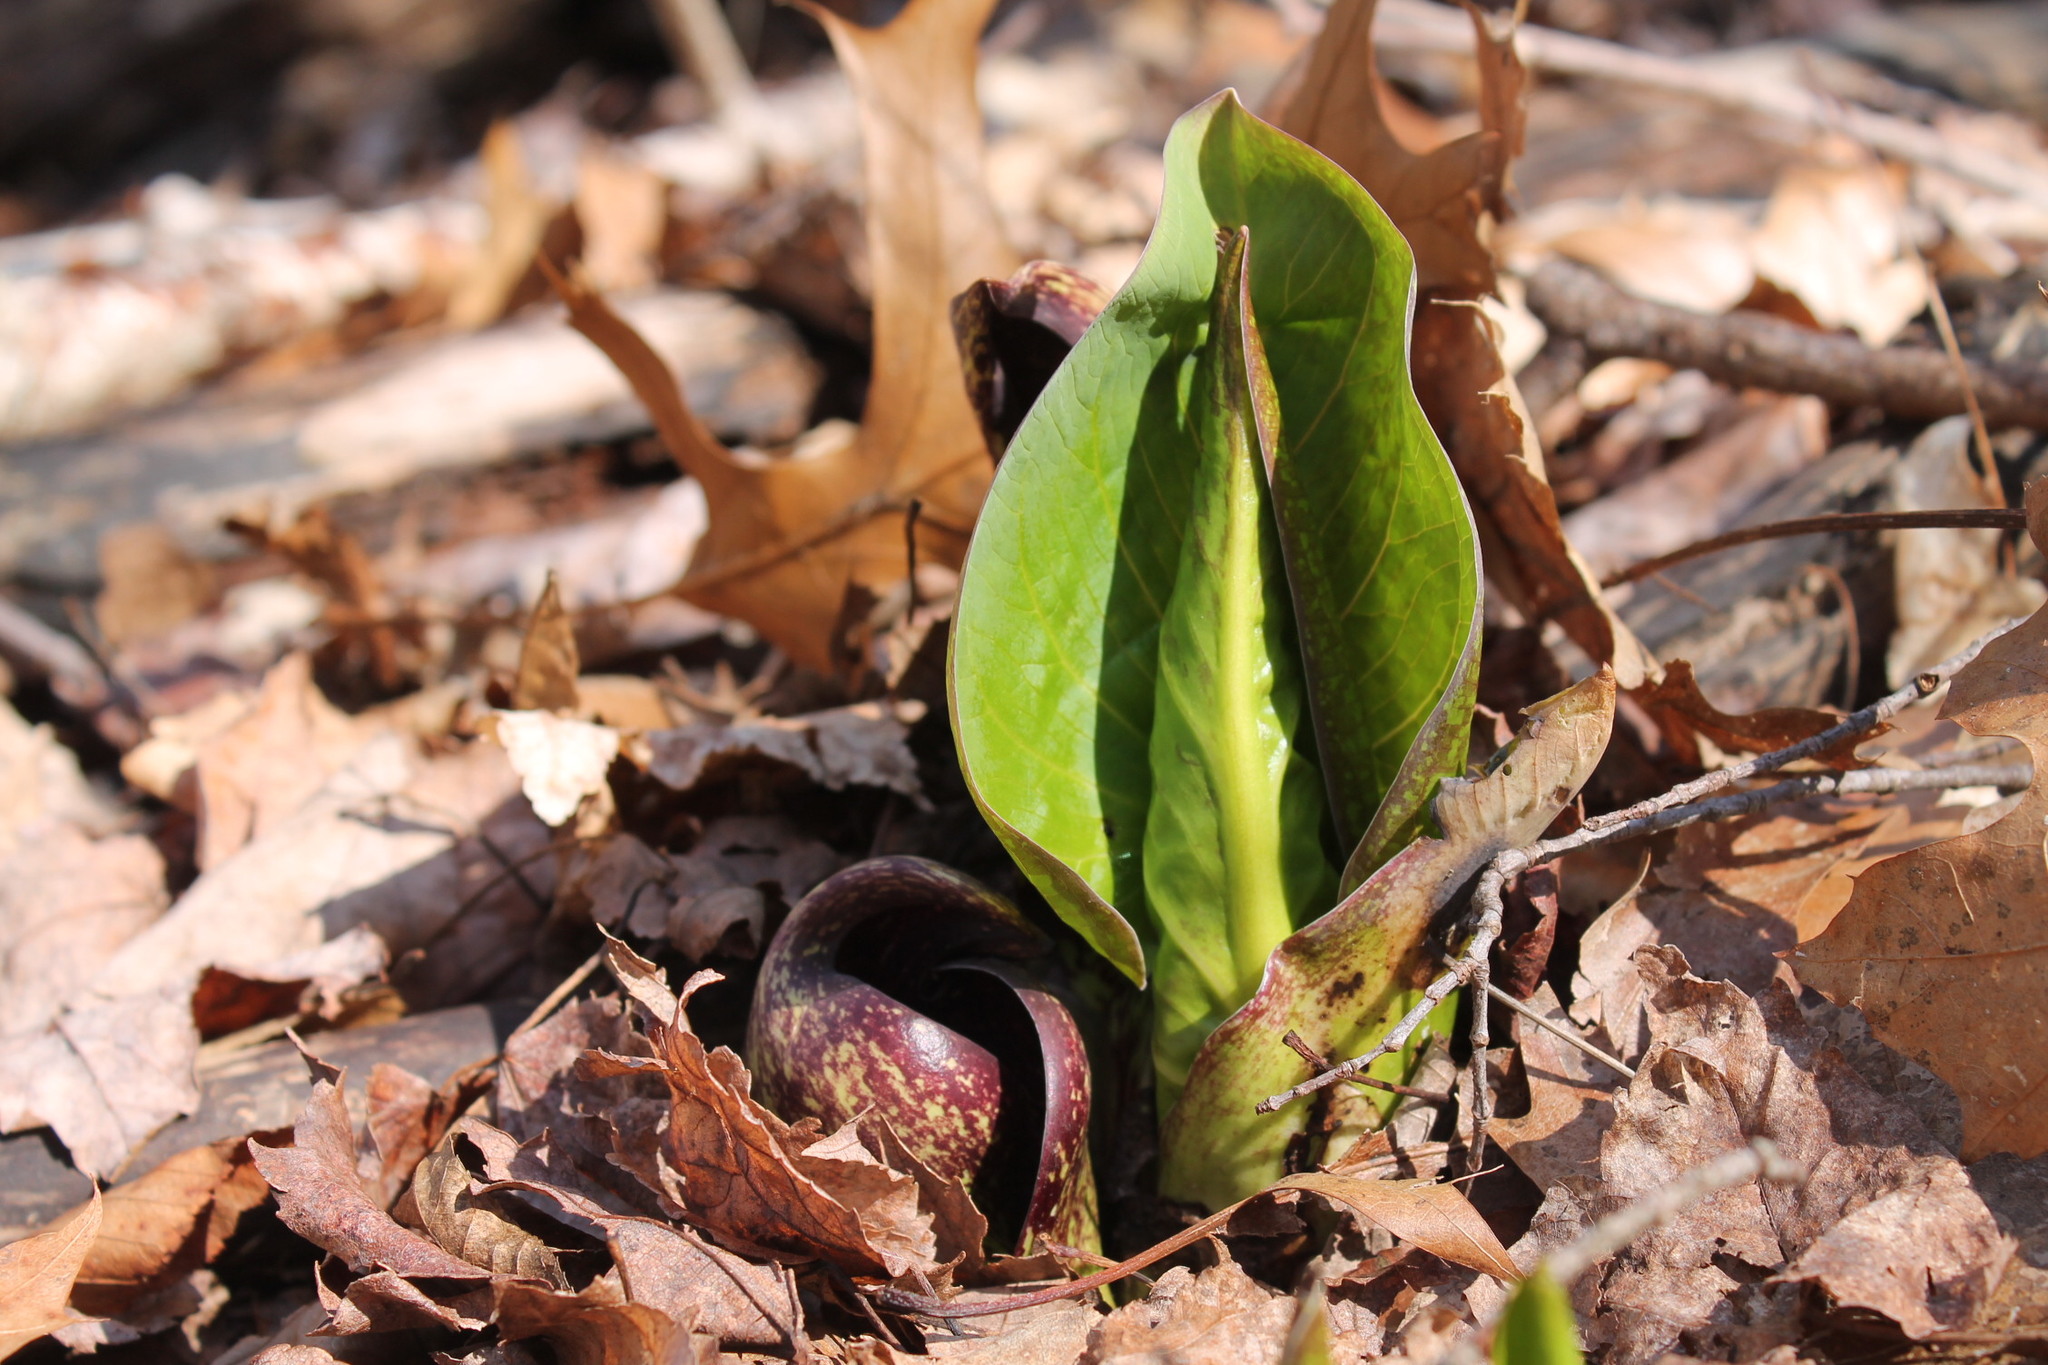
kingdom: Plantae
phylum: Tracheophyta
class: Liliopsida
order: Alismatales
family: Araceae
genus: Symplocarpus
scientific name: Symplocarpus foetidus
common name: Eastern skunk cabbage
